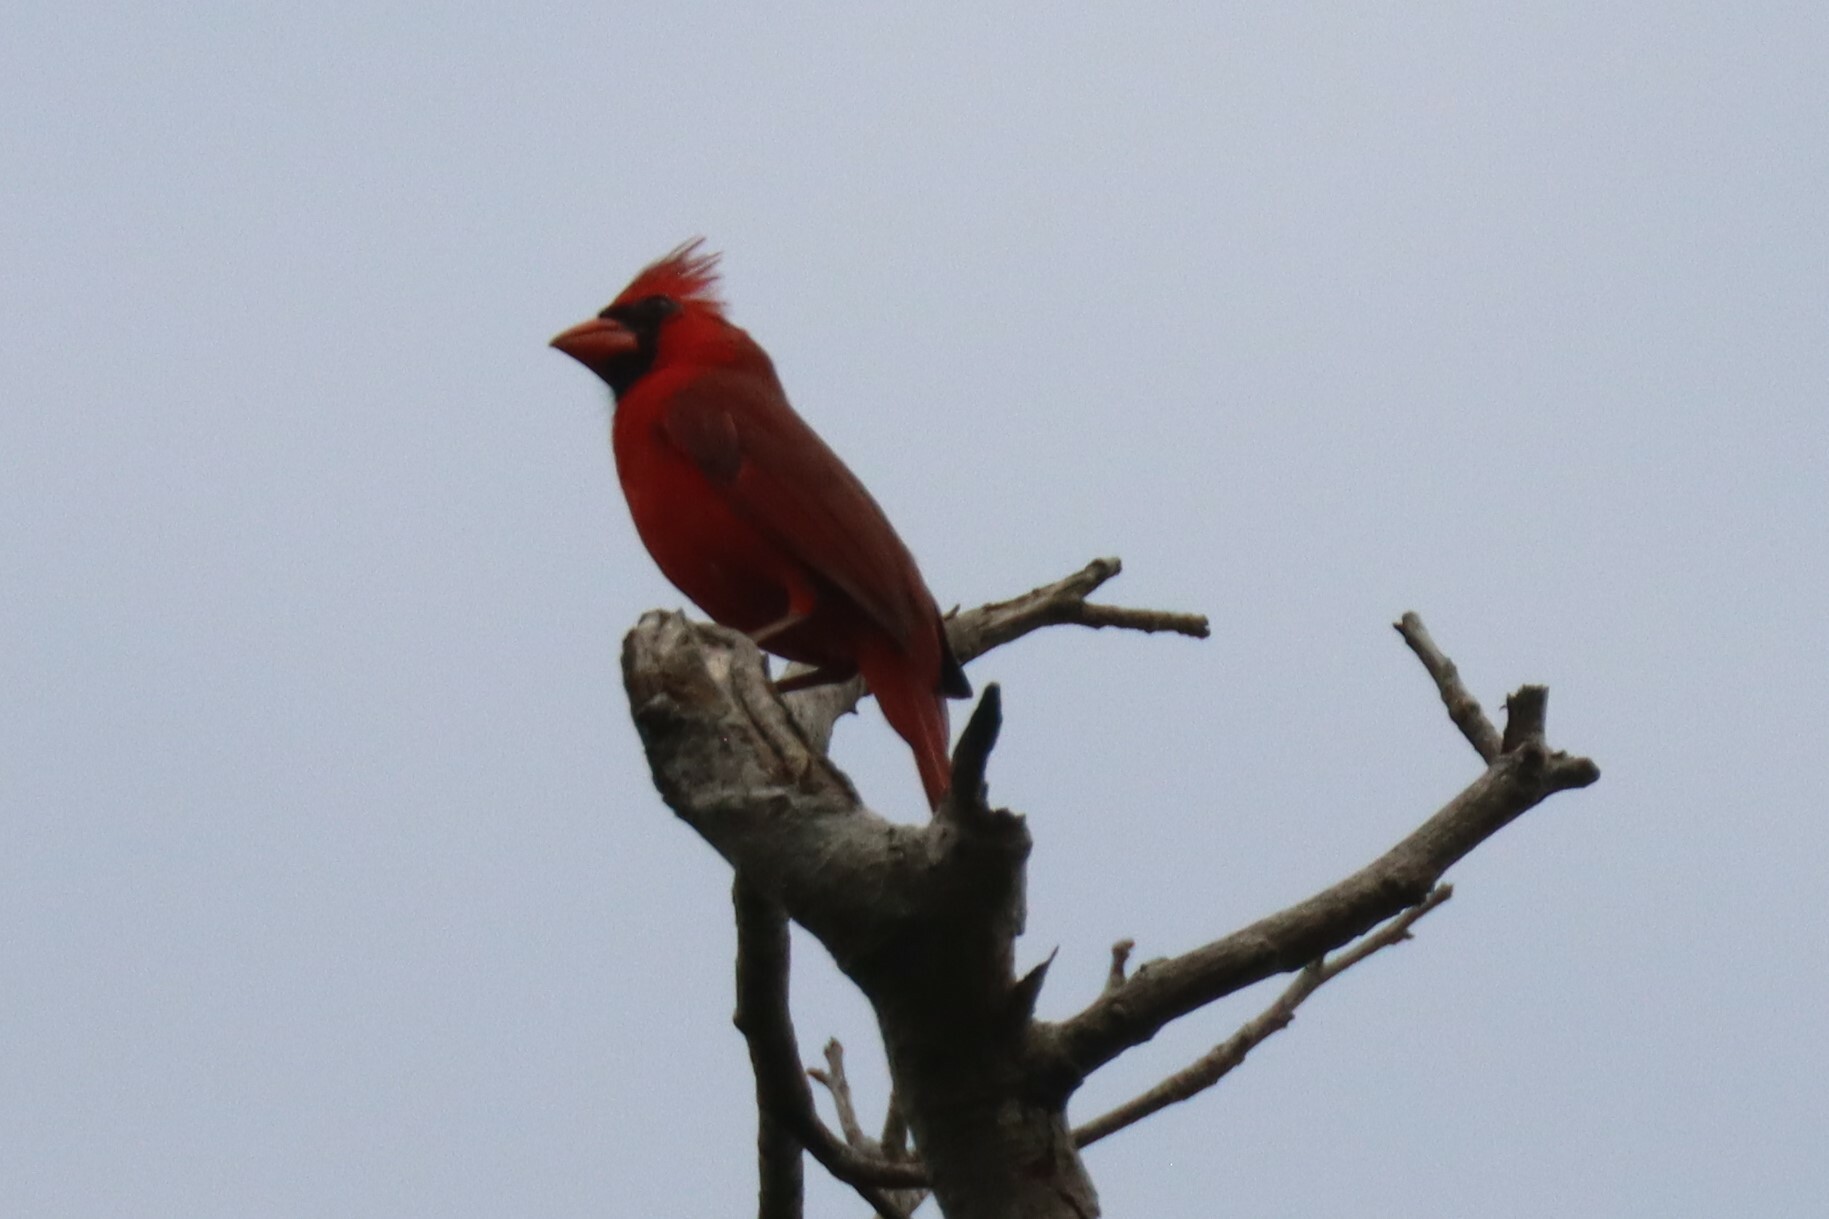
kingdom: Animalia
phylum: Chordata
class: Aves
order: Passeriformes
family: Cardinalidae
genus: Cardinalis
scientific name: Cardinalis cardinalis
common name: Northern cardinal
